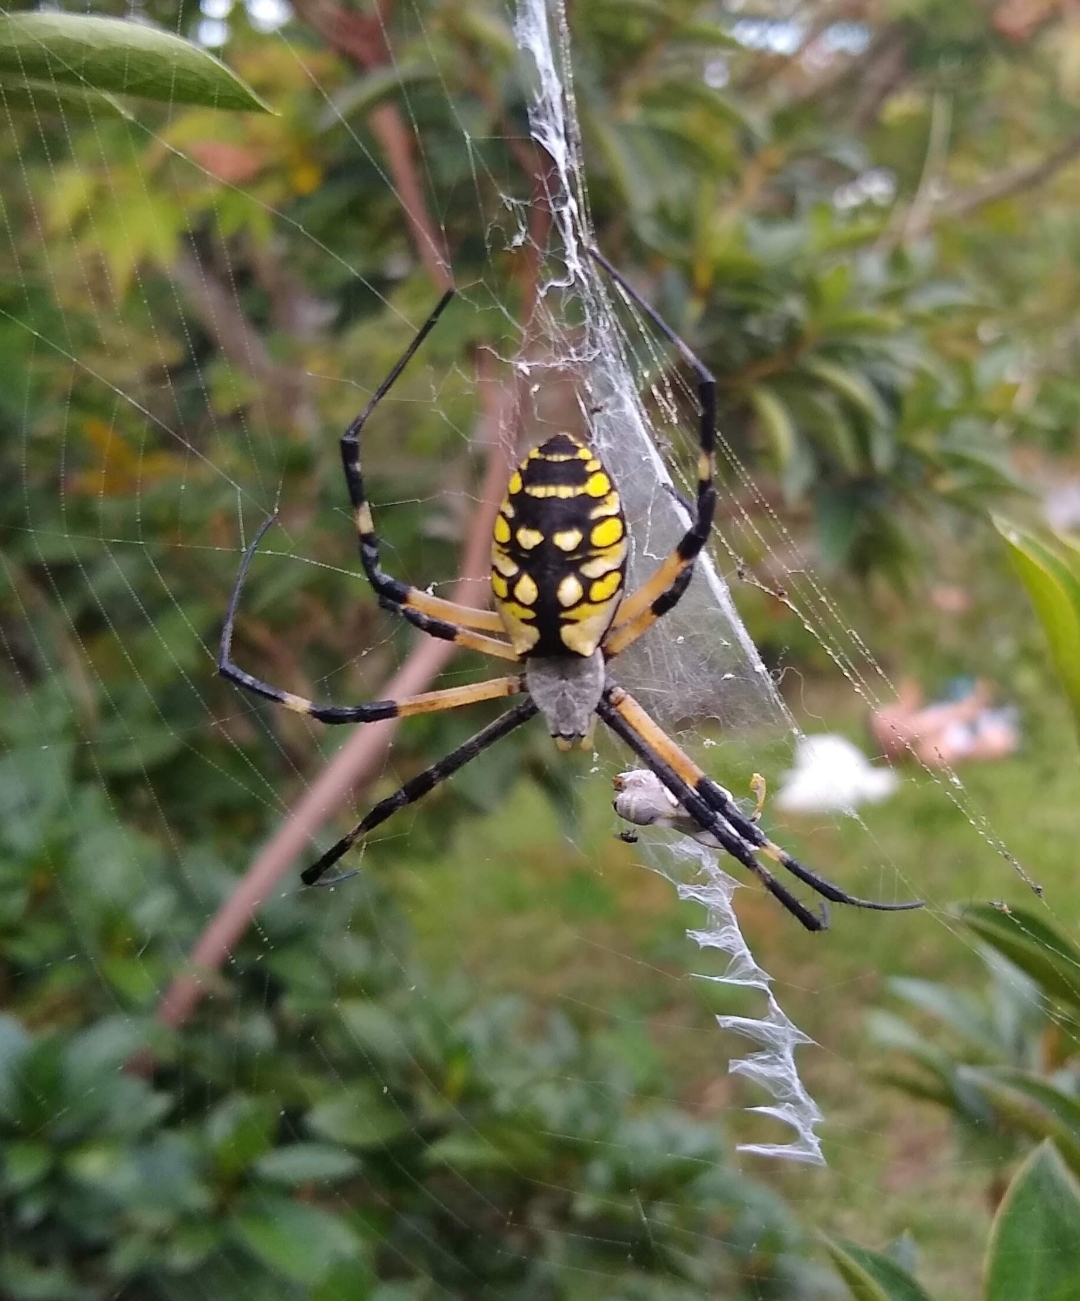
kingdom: Animalia
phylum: Arthropoda
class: Arachnida
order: Araneae
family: Araneidae
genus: Argiope
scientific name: Argiope aurantia
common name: Orb weavers
